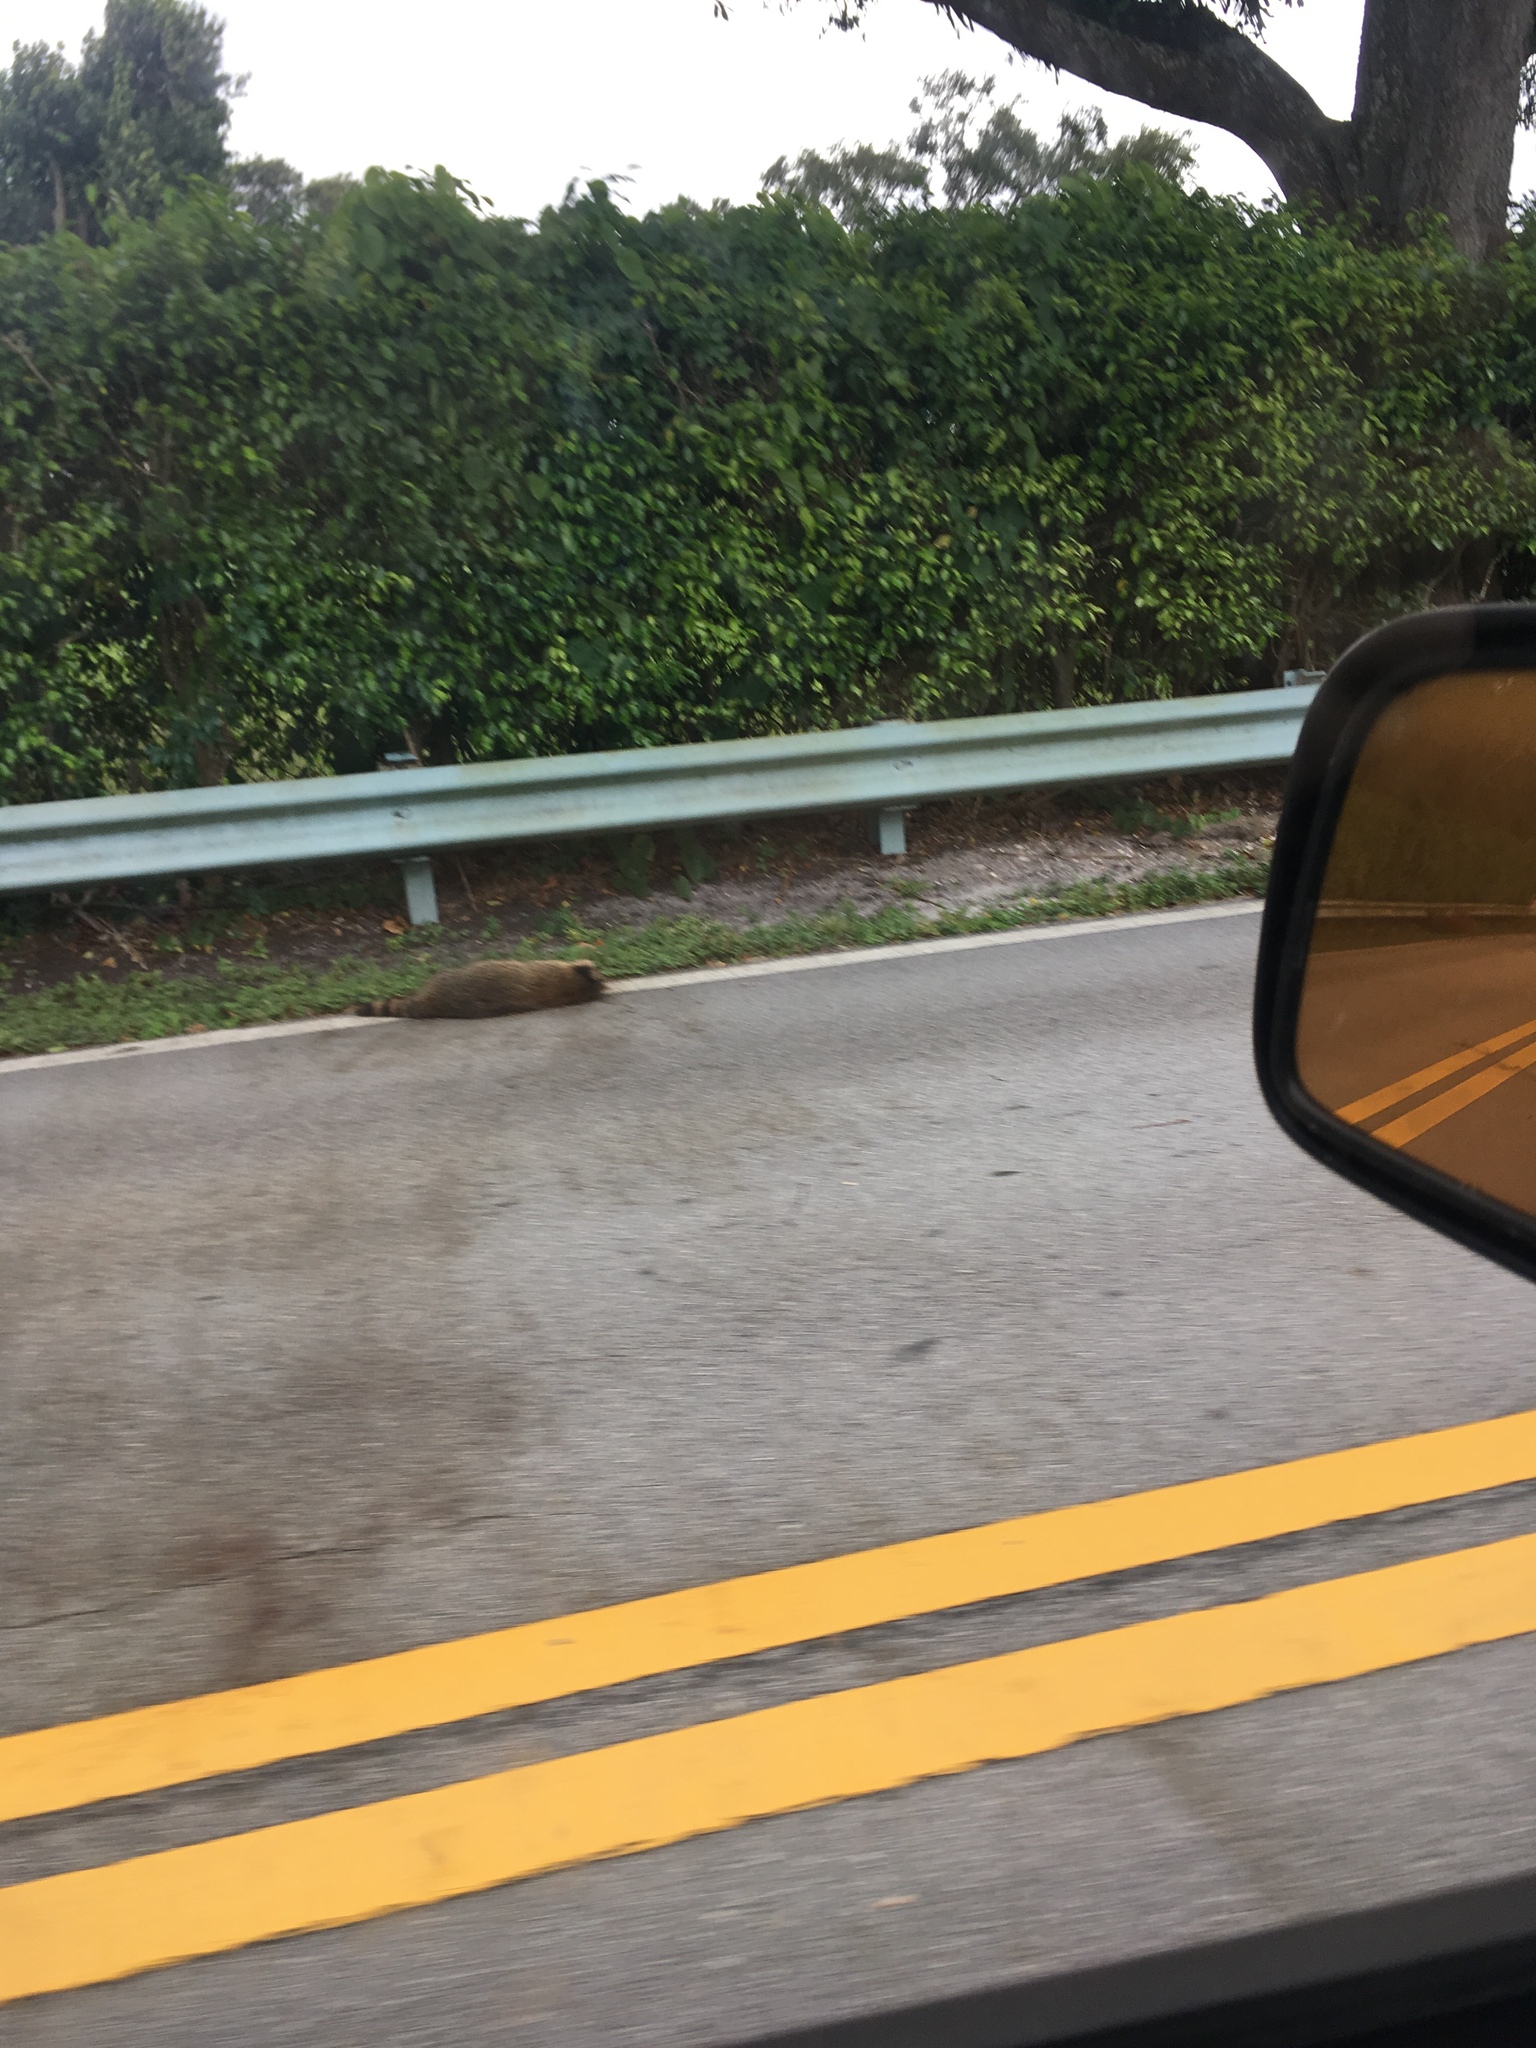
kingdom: Animalia
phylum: Chordata
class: Mammalia
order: Carnivora
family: Procyonidae
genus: Procyon
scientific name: Procyon lotor
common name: Raccoon
